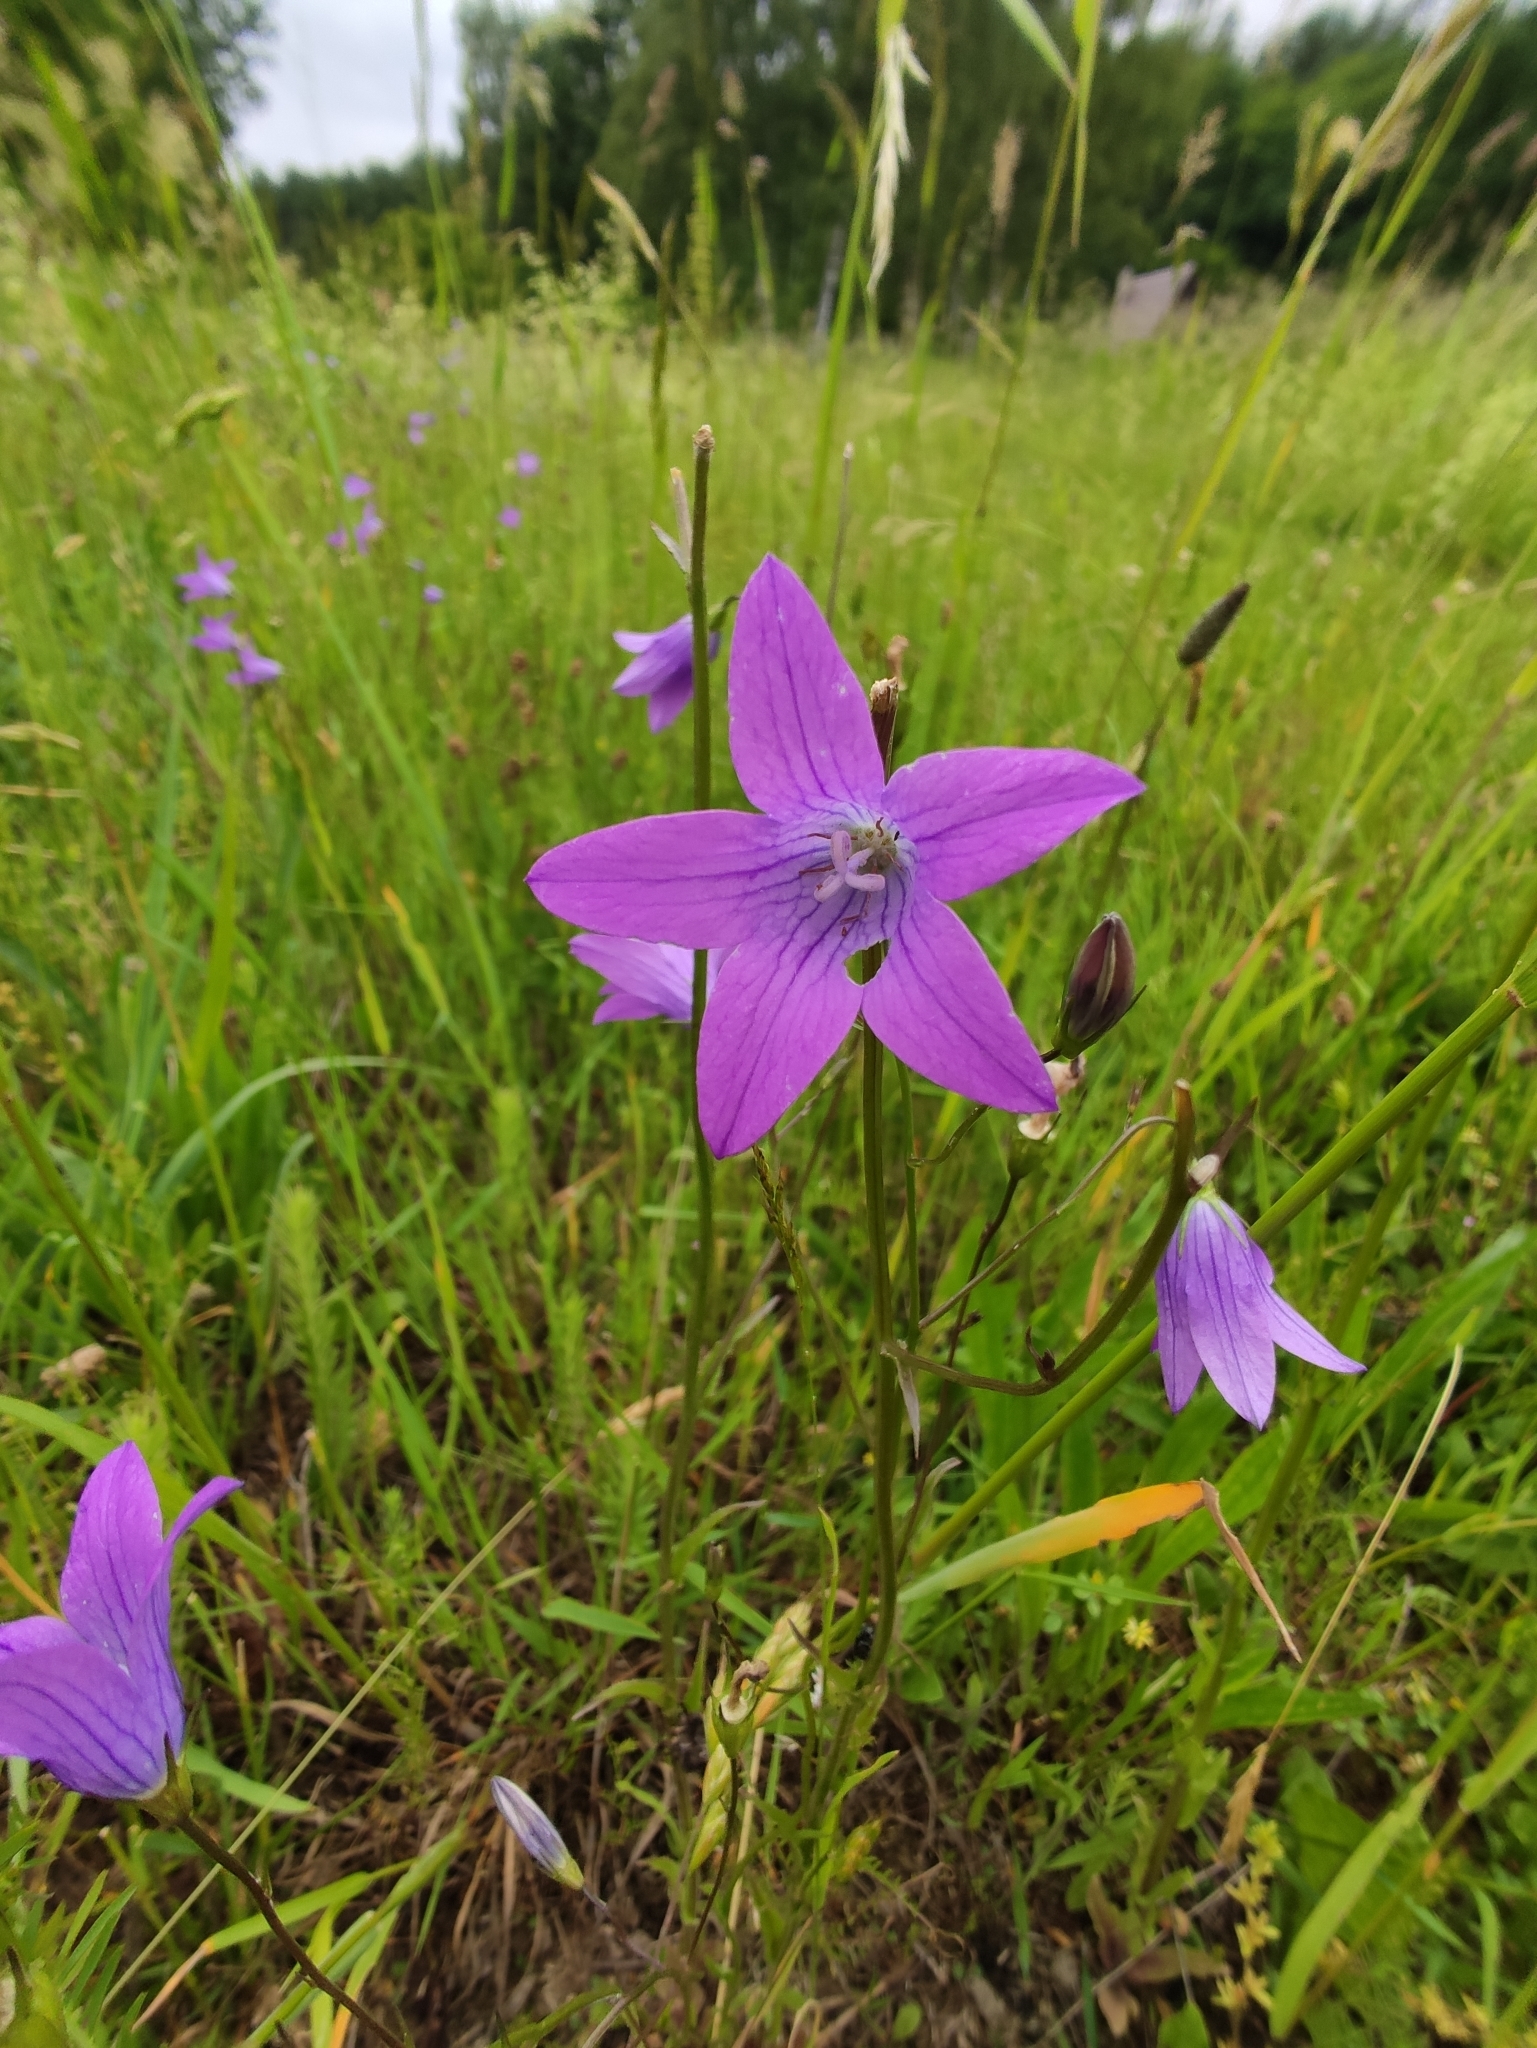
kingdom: Plantae
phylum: Tracheophyta
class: Magnoliopsida
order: Asterales
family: Campanulaceae
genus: Campanula
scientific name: Campanula patula
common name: Spreading bellflower
